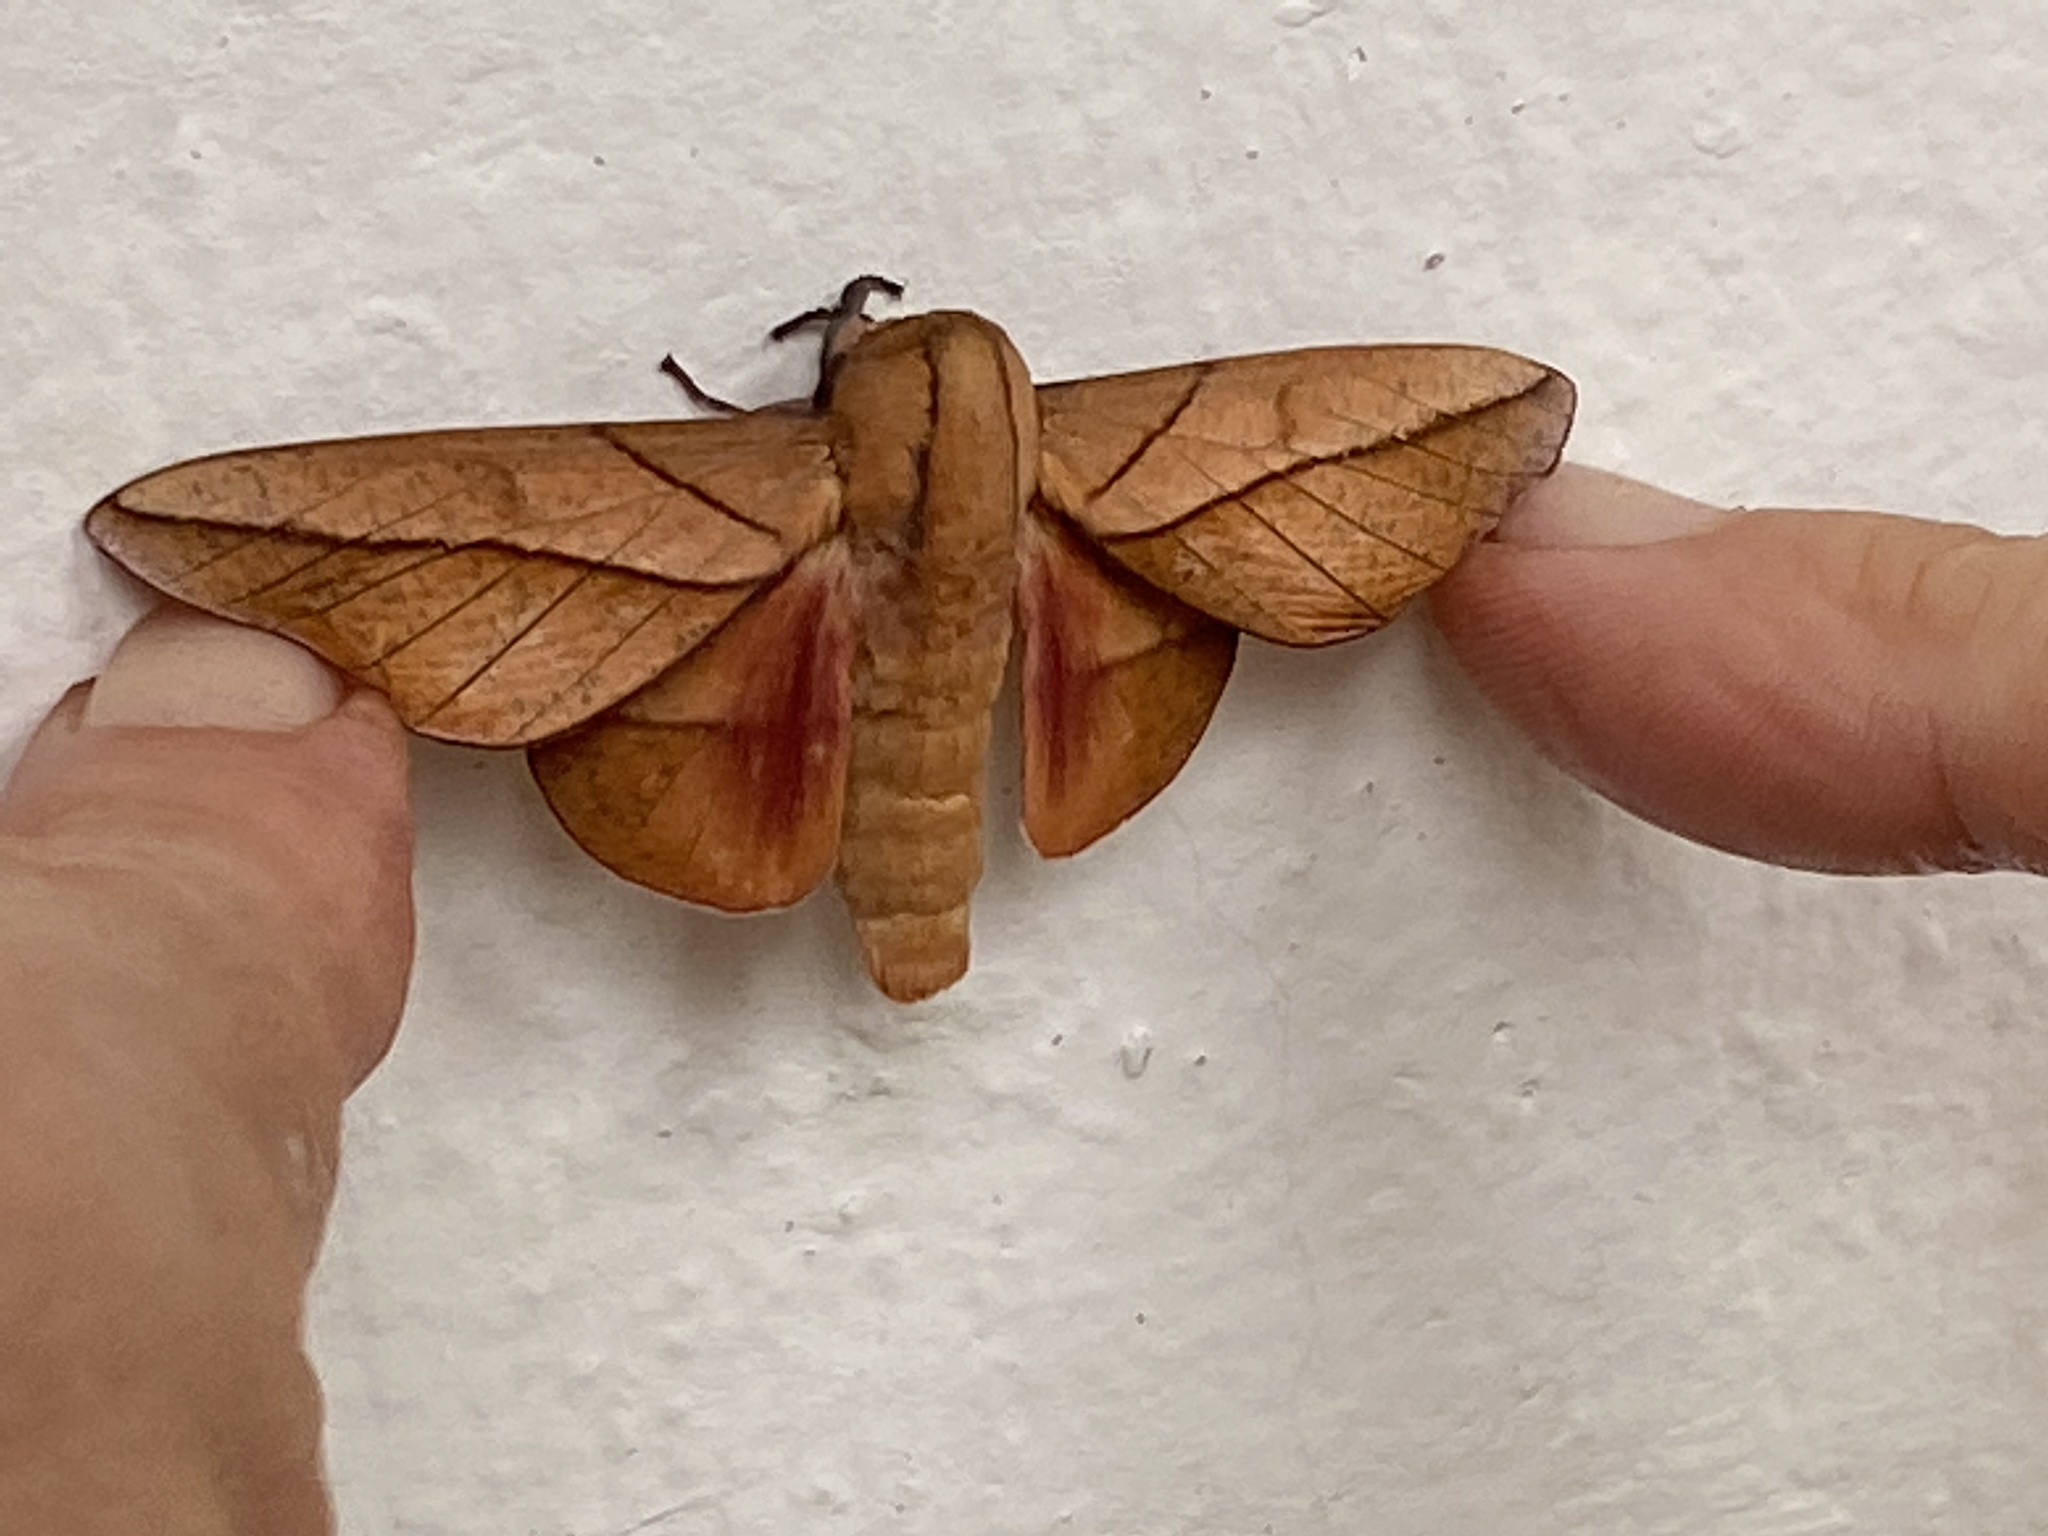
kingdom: Animalia
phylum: Arthropoda
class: Insecta
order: Lepidoptera
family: Saturniidae
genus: Oiticella
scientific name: Oiticella convergens
